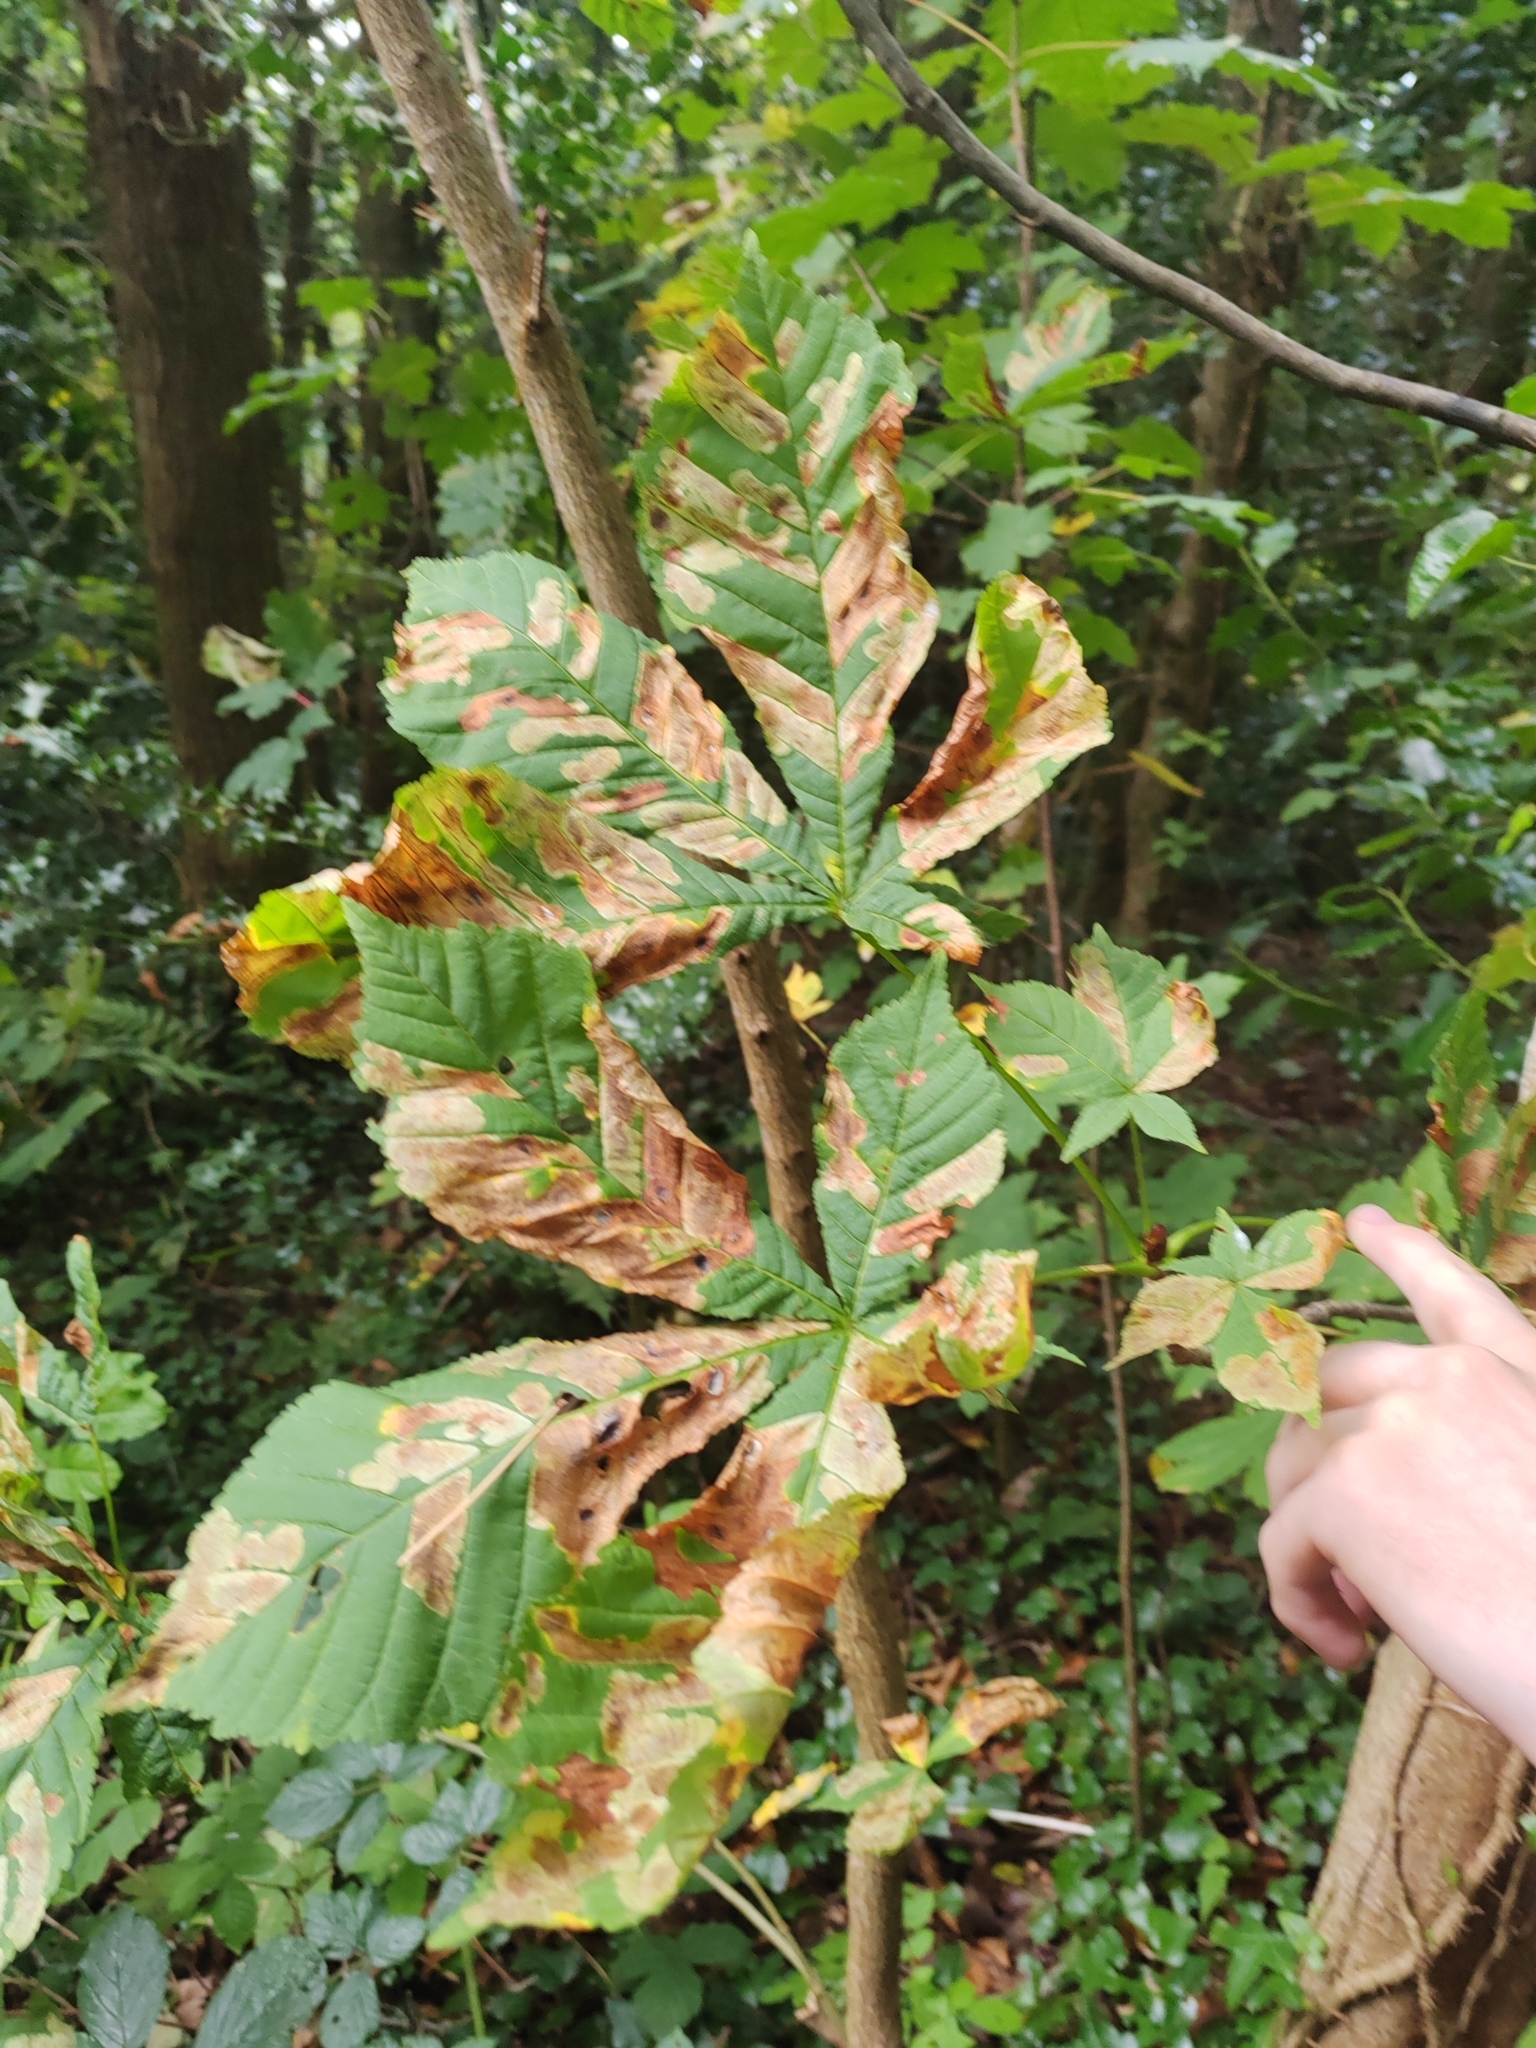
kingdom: Animalia
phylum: Arthropoda
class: Insecta
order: Lepidoptera
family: Gracillariidae
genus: Cameraria
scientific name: Cameraria ohridella
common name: Horse-chestnut leaf-miner
